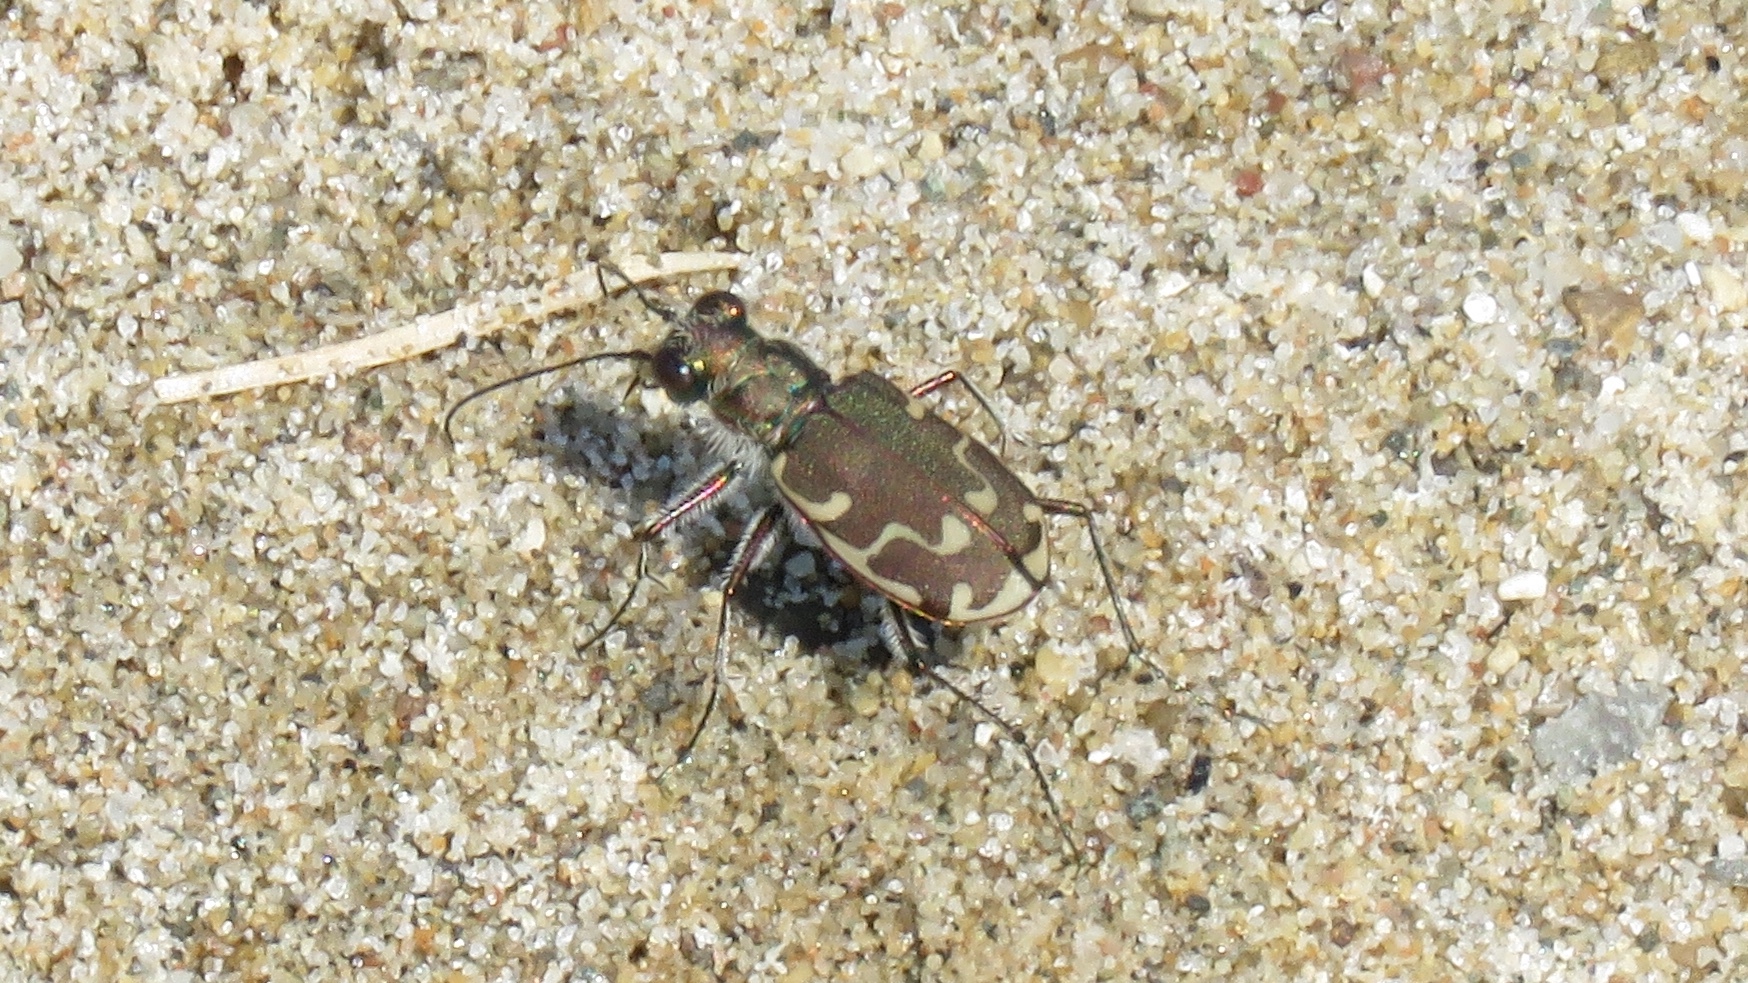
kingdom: Animalia
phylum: Arthropoda
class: Insecta
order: Coleoptera
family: Carabidae
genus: Cicindela
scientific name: Cicindela repanda
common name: Bronzed tiger beetle
